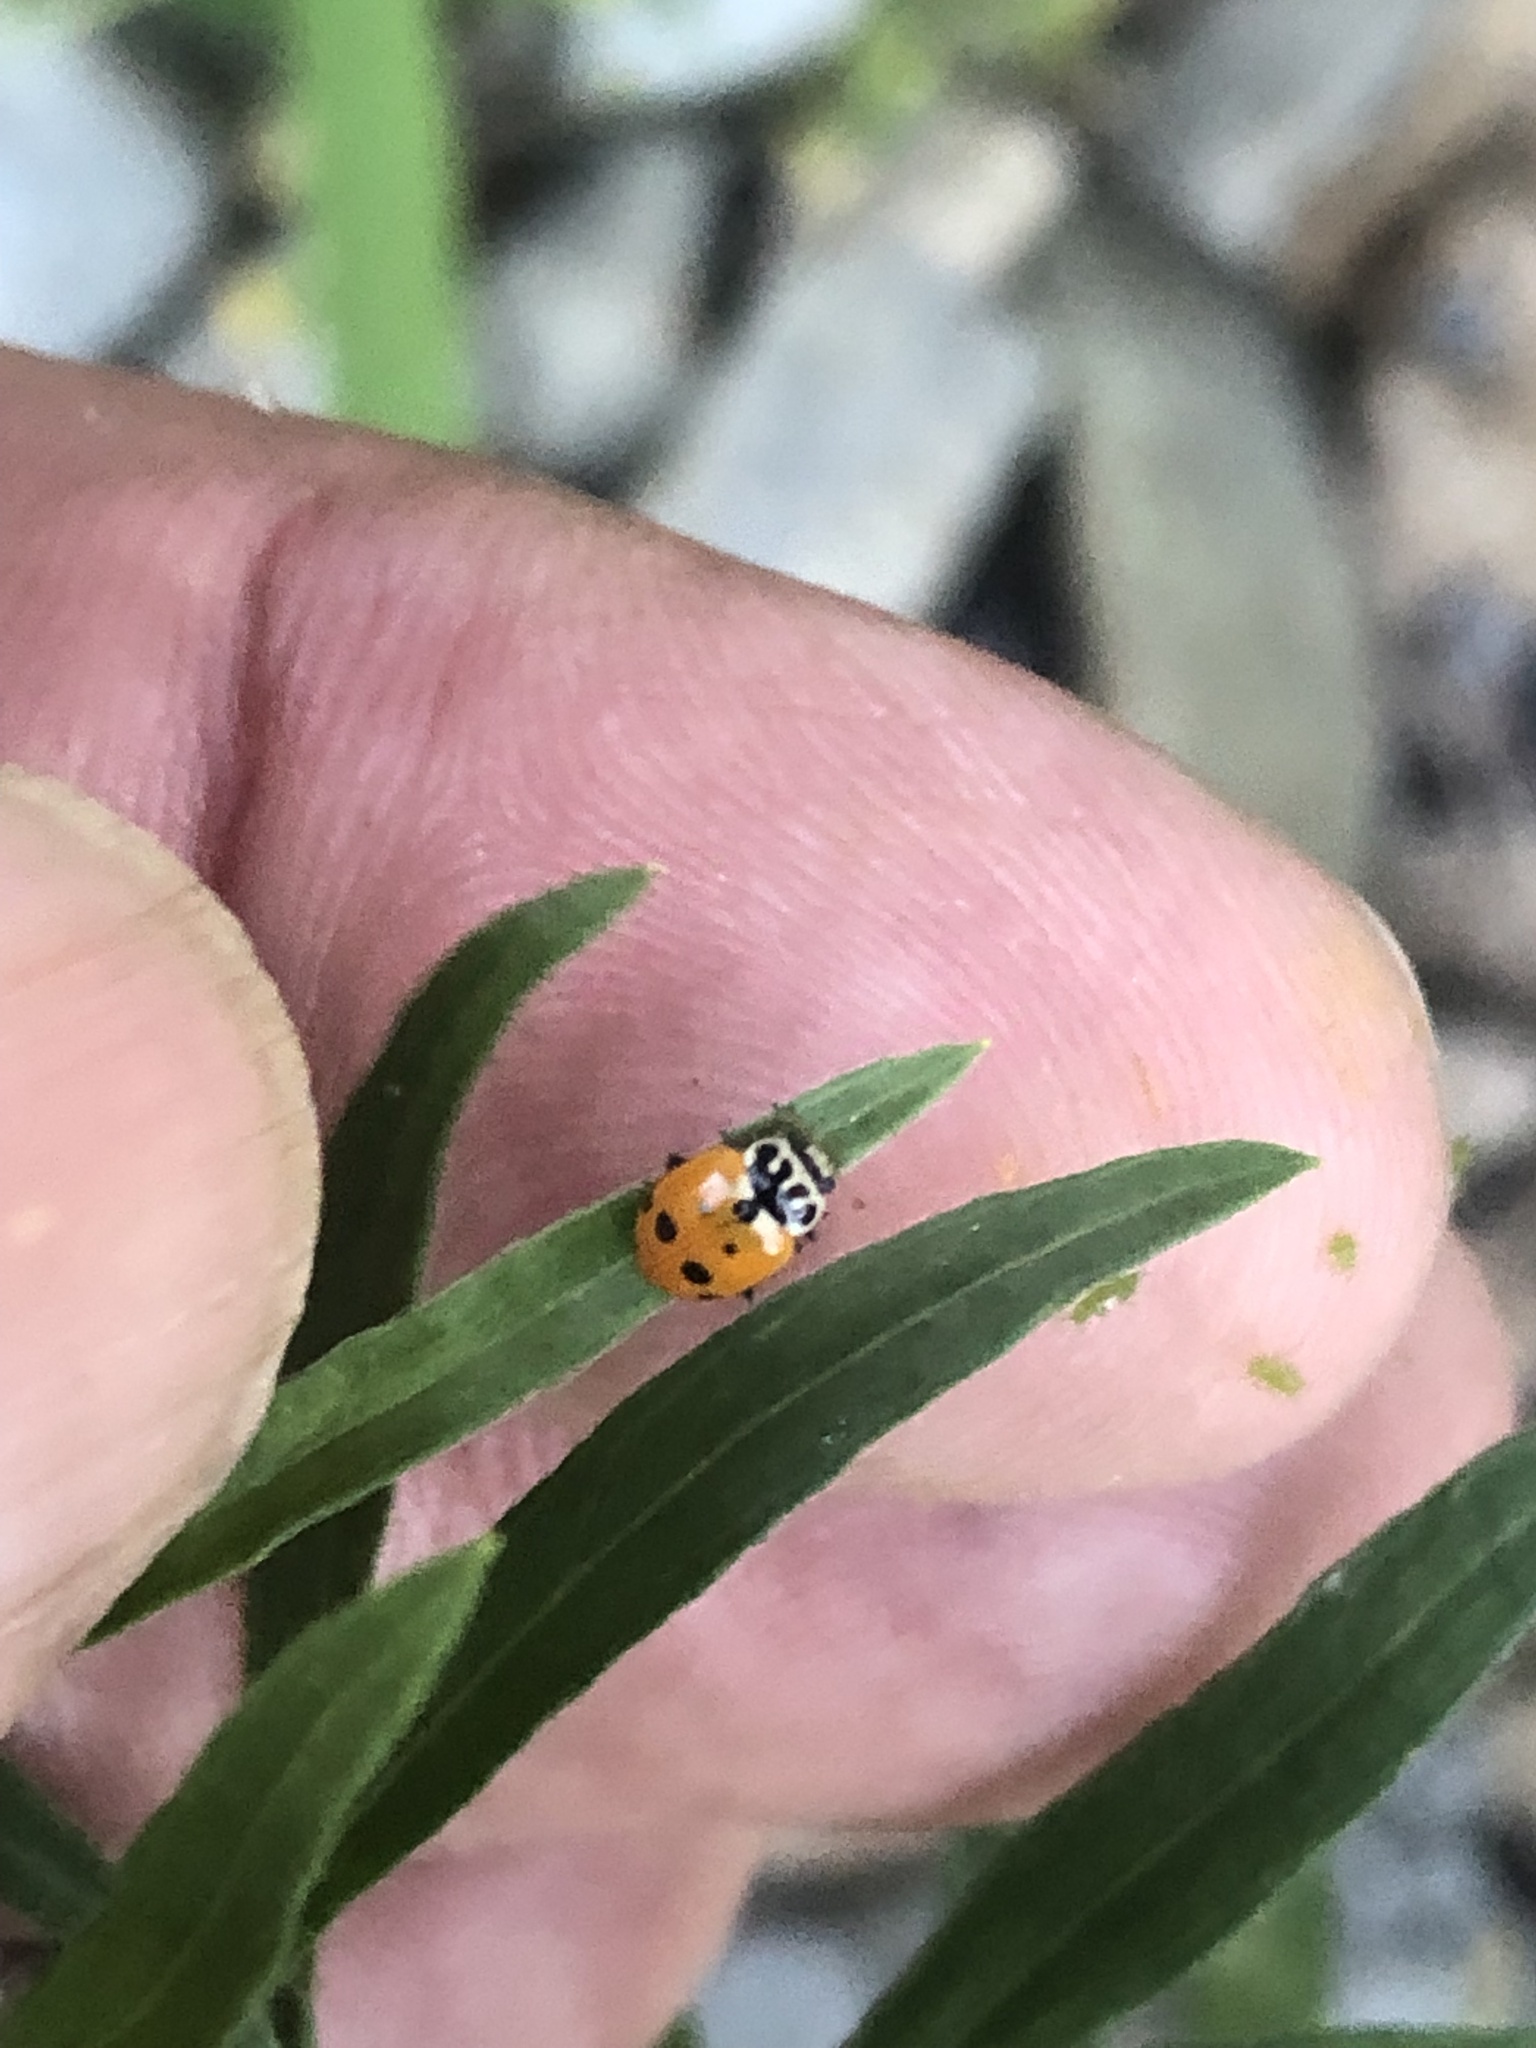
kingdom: Animalia
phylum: Arthropoda
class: Insecta
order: Coleoptera
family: Coccinellidae
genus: Hippodamia
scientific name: Hippodamia variegata
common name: Ladybird beetle
